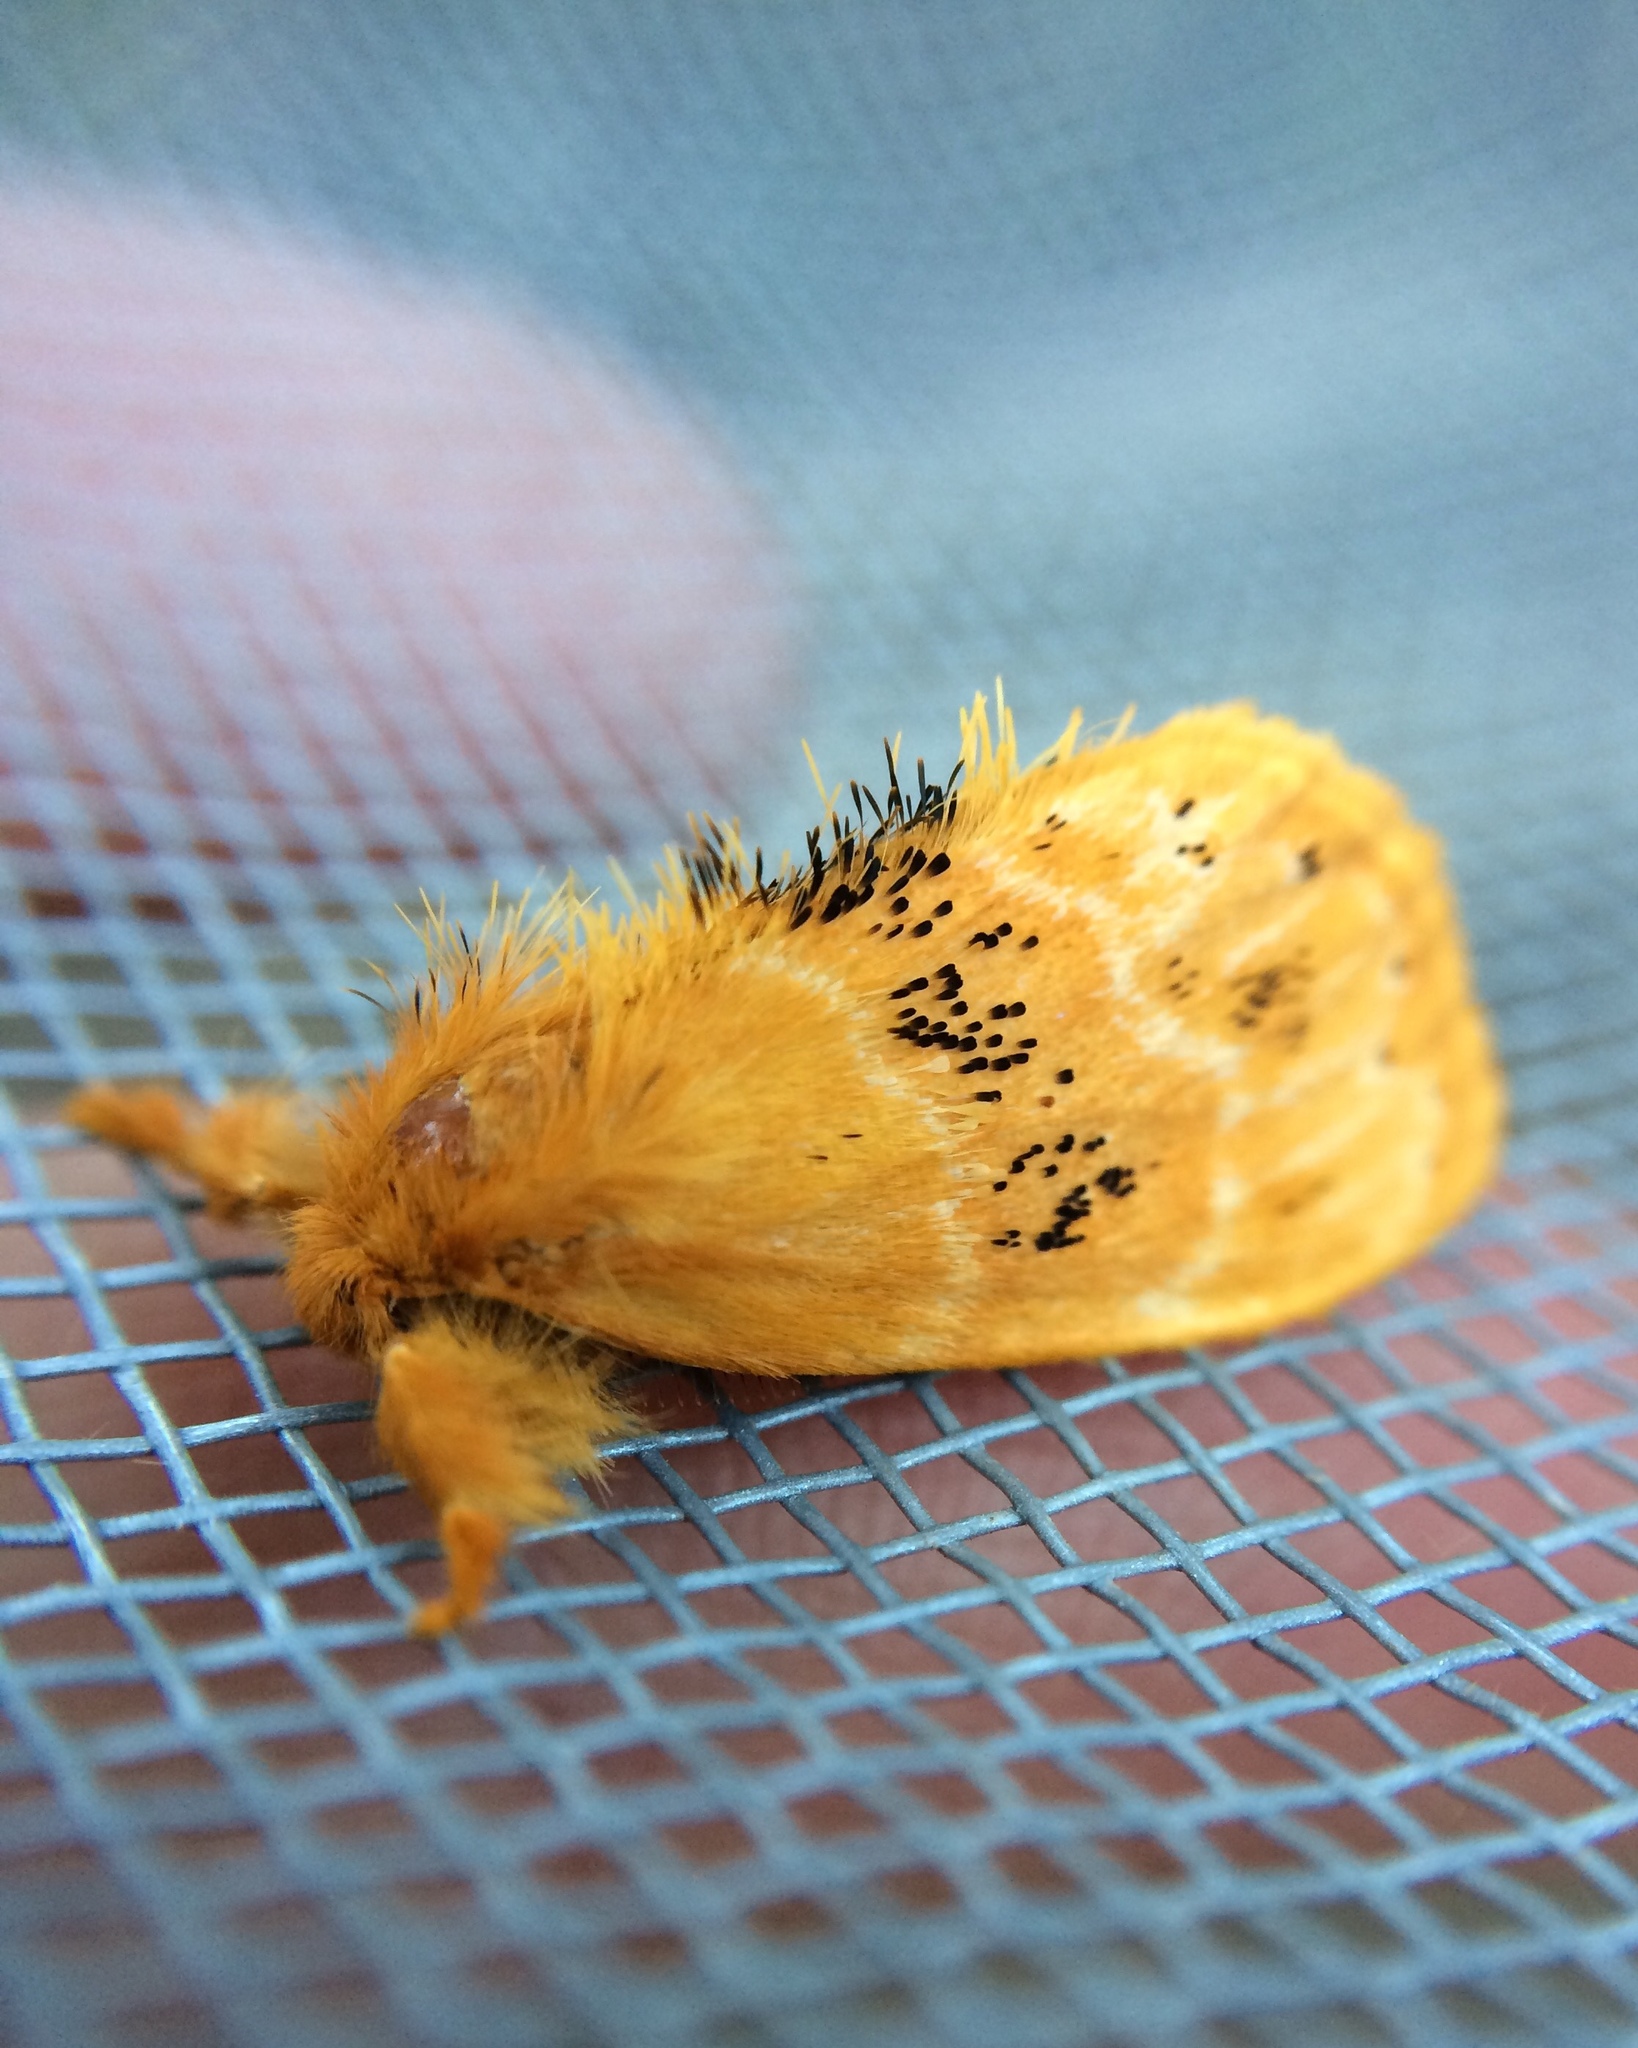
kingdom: Animalia
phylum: Arthropoda
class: Insecta
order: Lepidoptera
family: Erebidae
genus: Euproctis
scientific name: Euproctis punctifera
